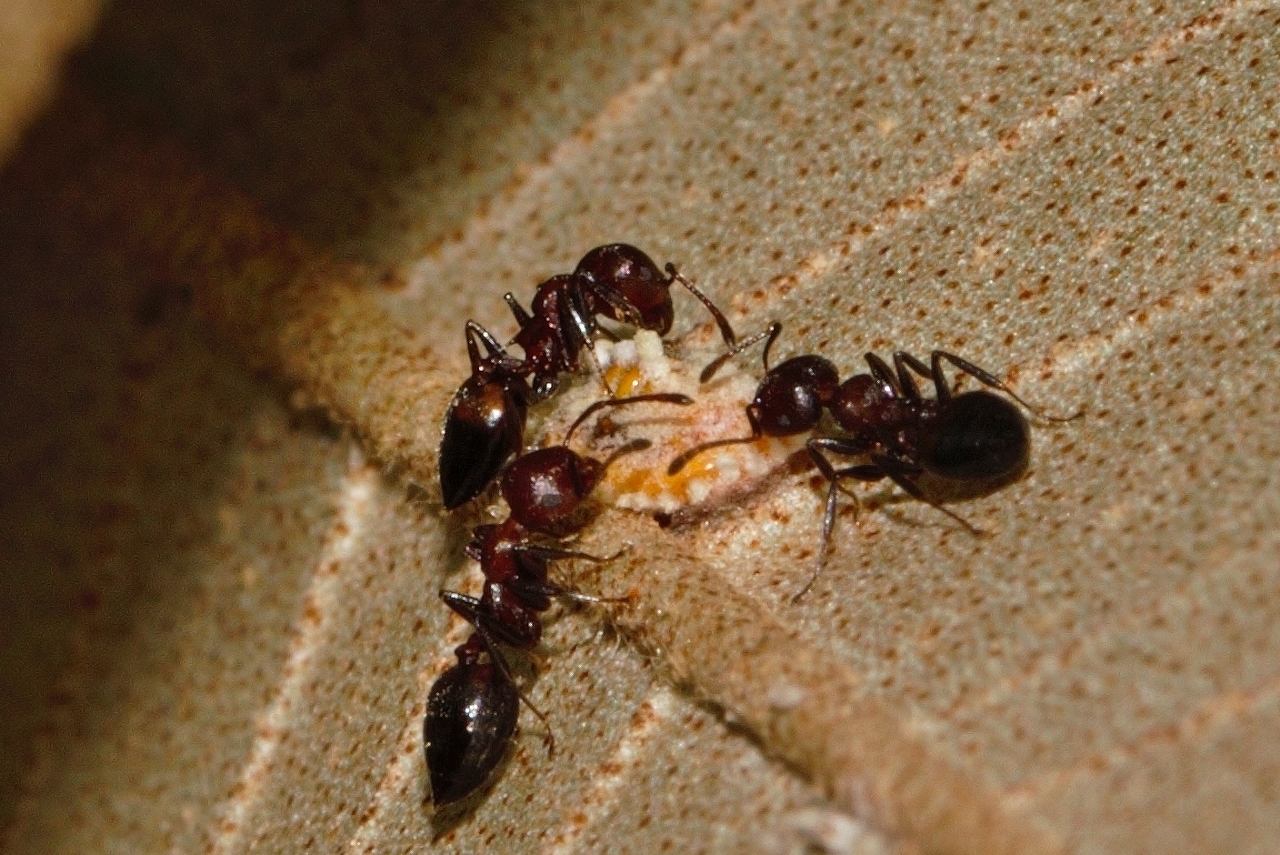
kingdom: Animalia
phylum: Arthropoda
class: Insecta
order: Hymenoptera
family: Formicidae
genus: Crematogaster
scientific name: Crematogaster castanea
